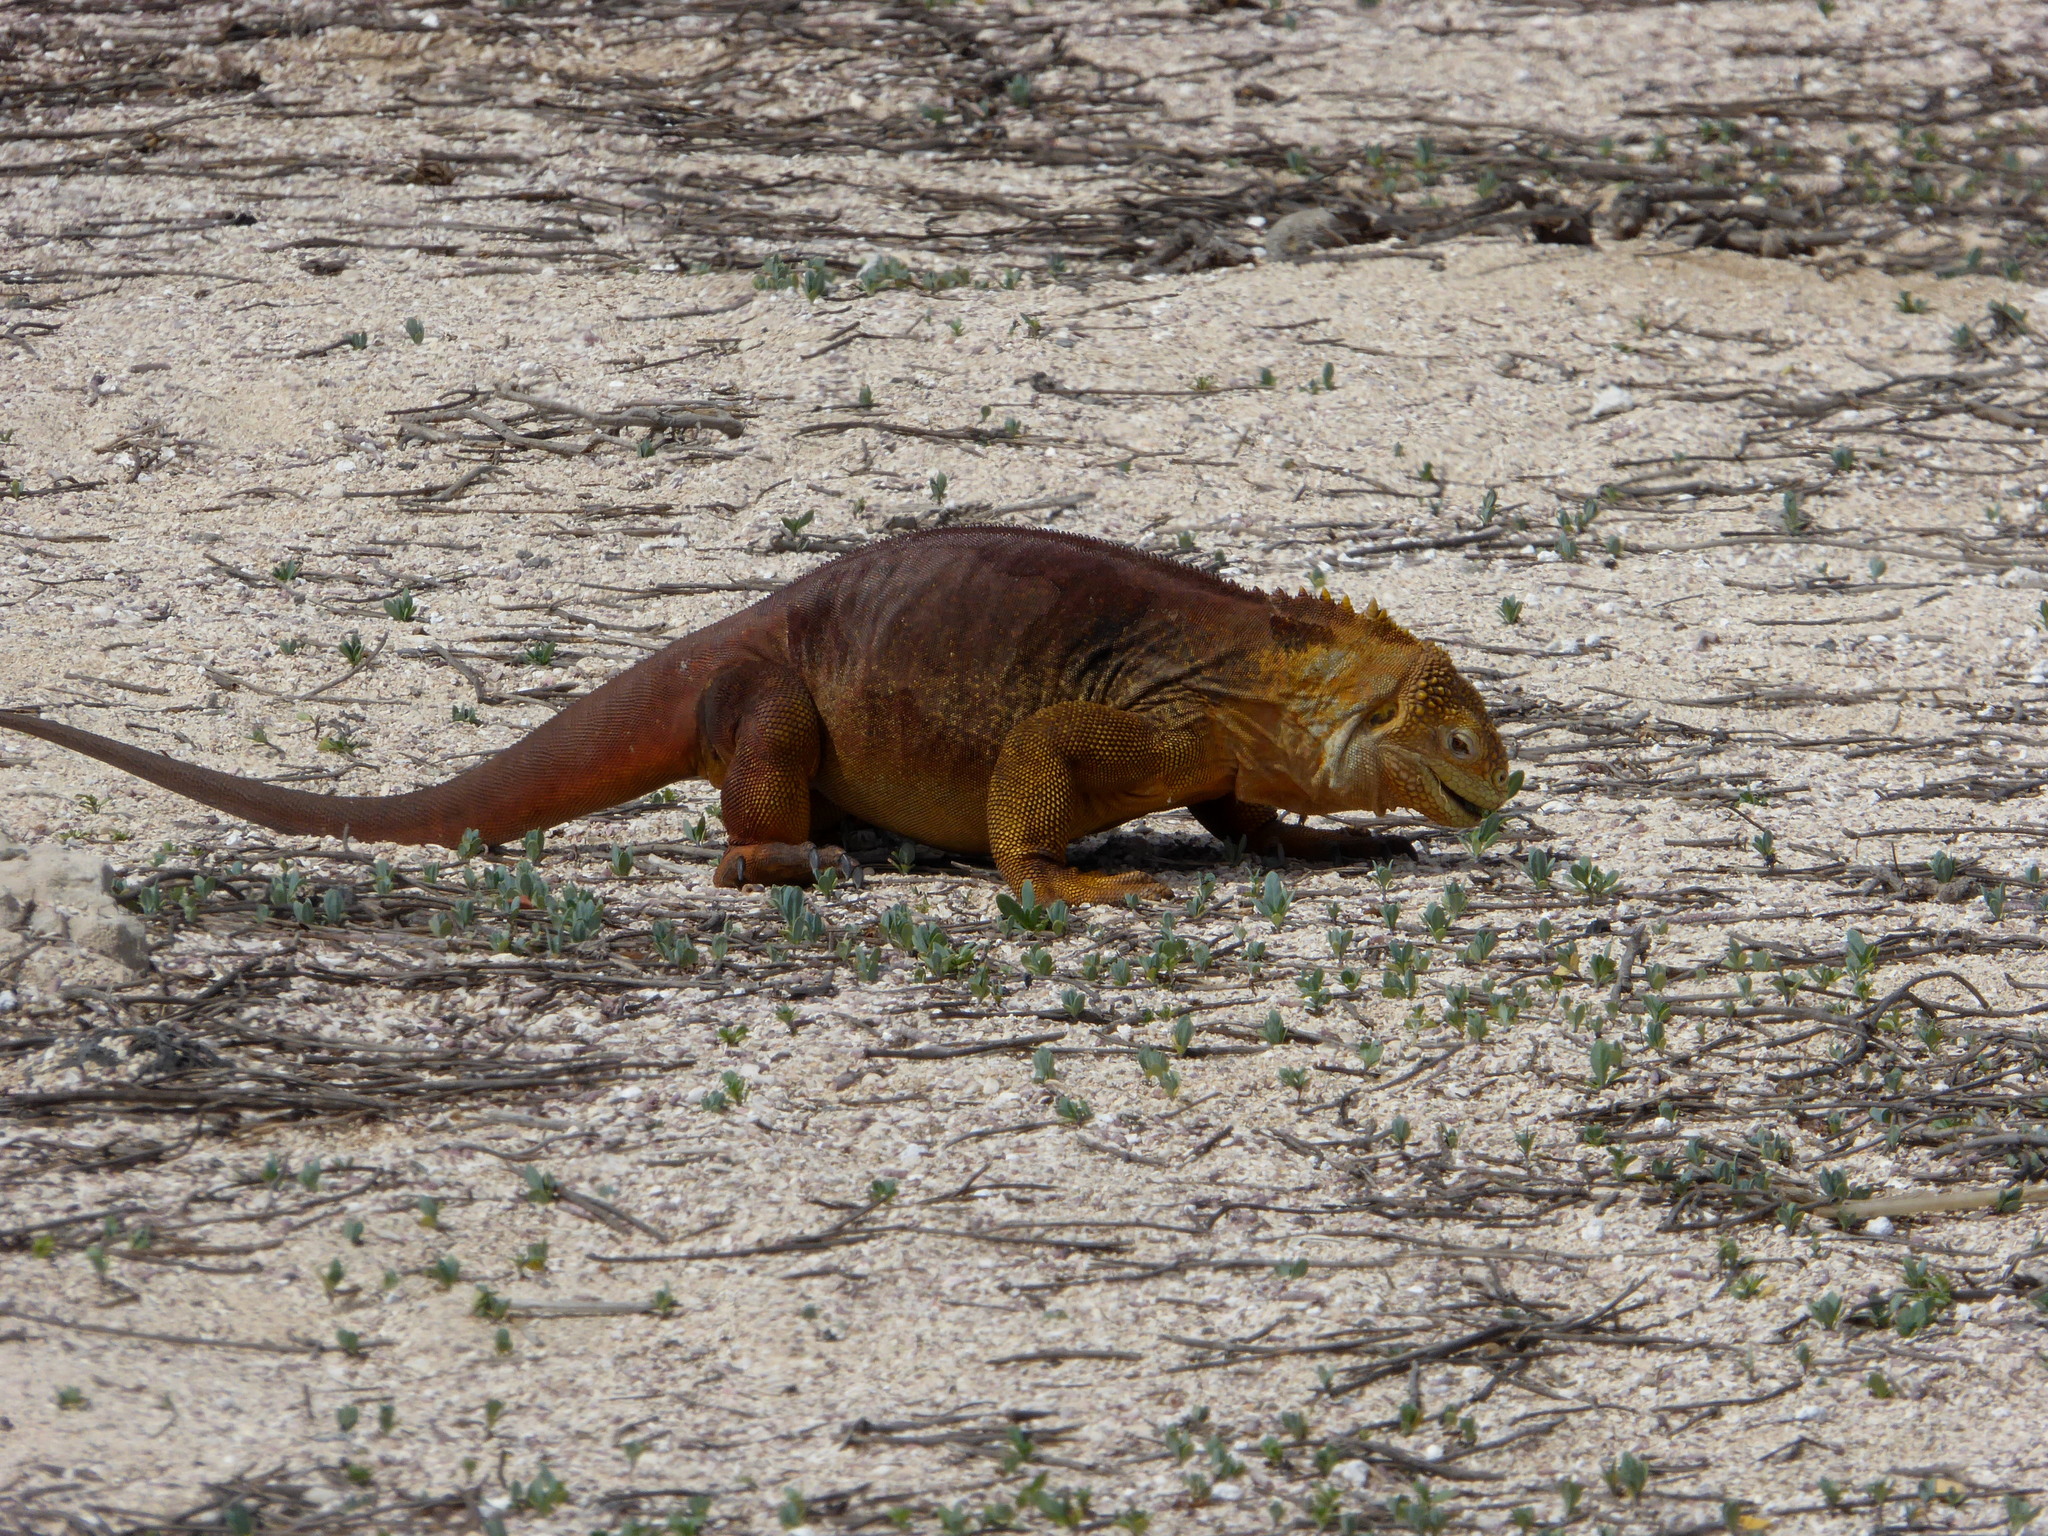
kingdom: Animalia
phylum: Chordata
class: Squamata
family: Iguanidae
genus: Conolophus
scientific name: Conolophus subcristatus
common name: Galapagos land iguana
